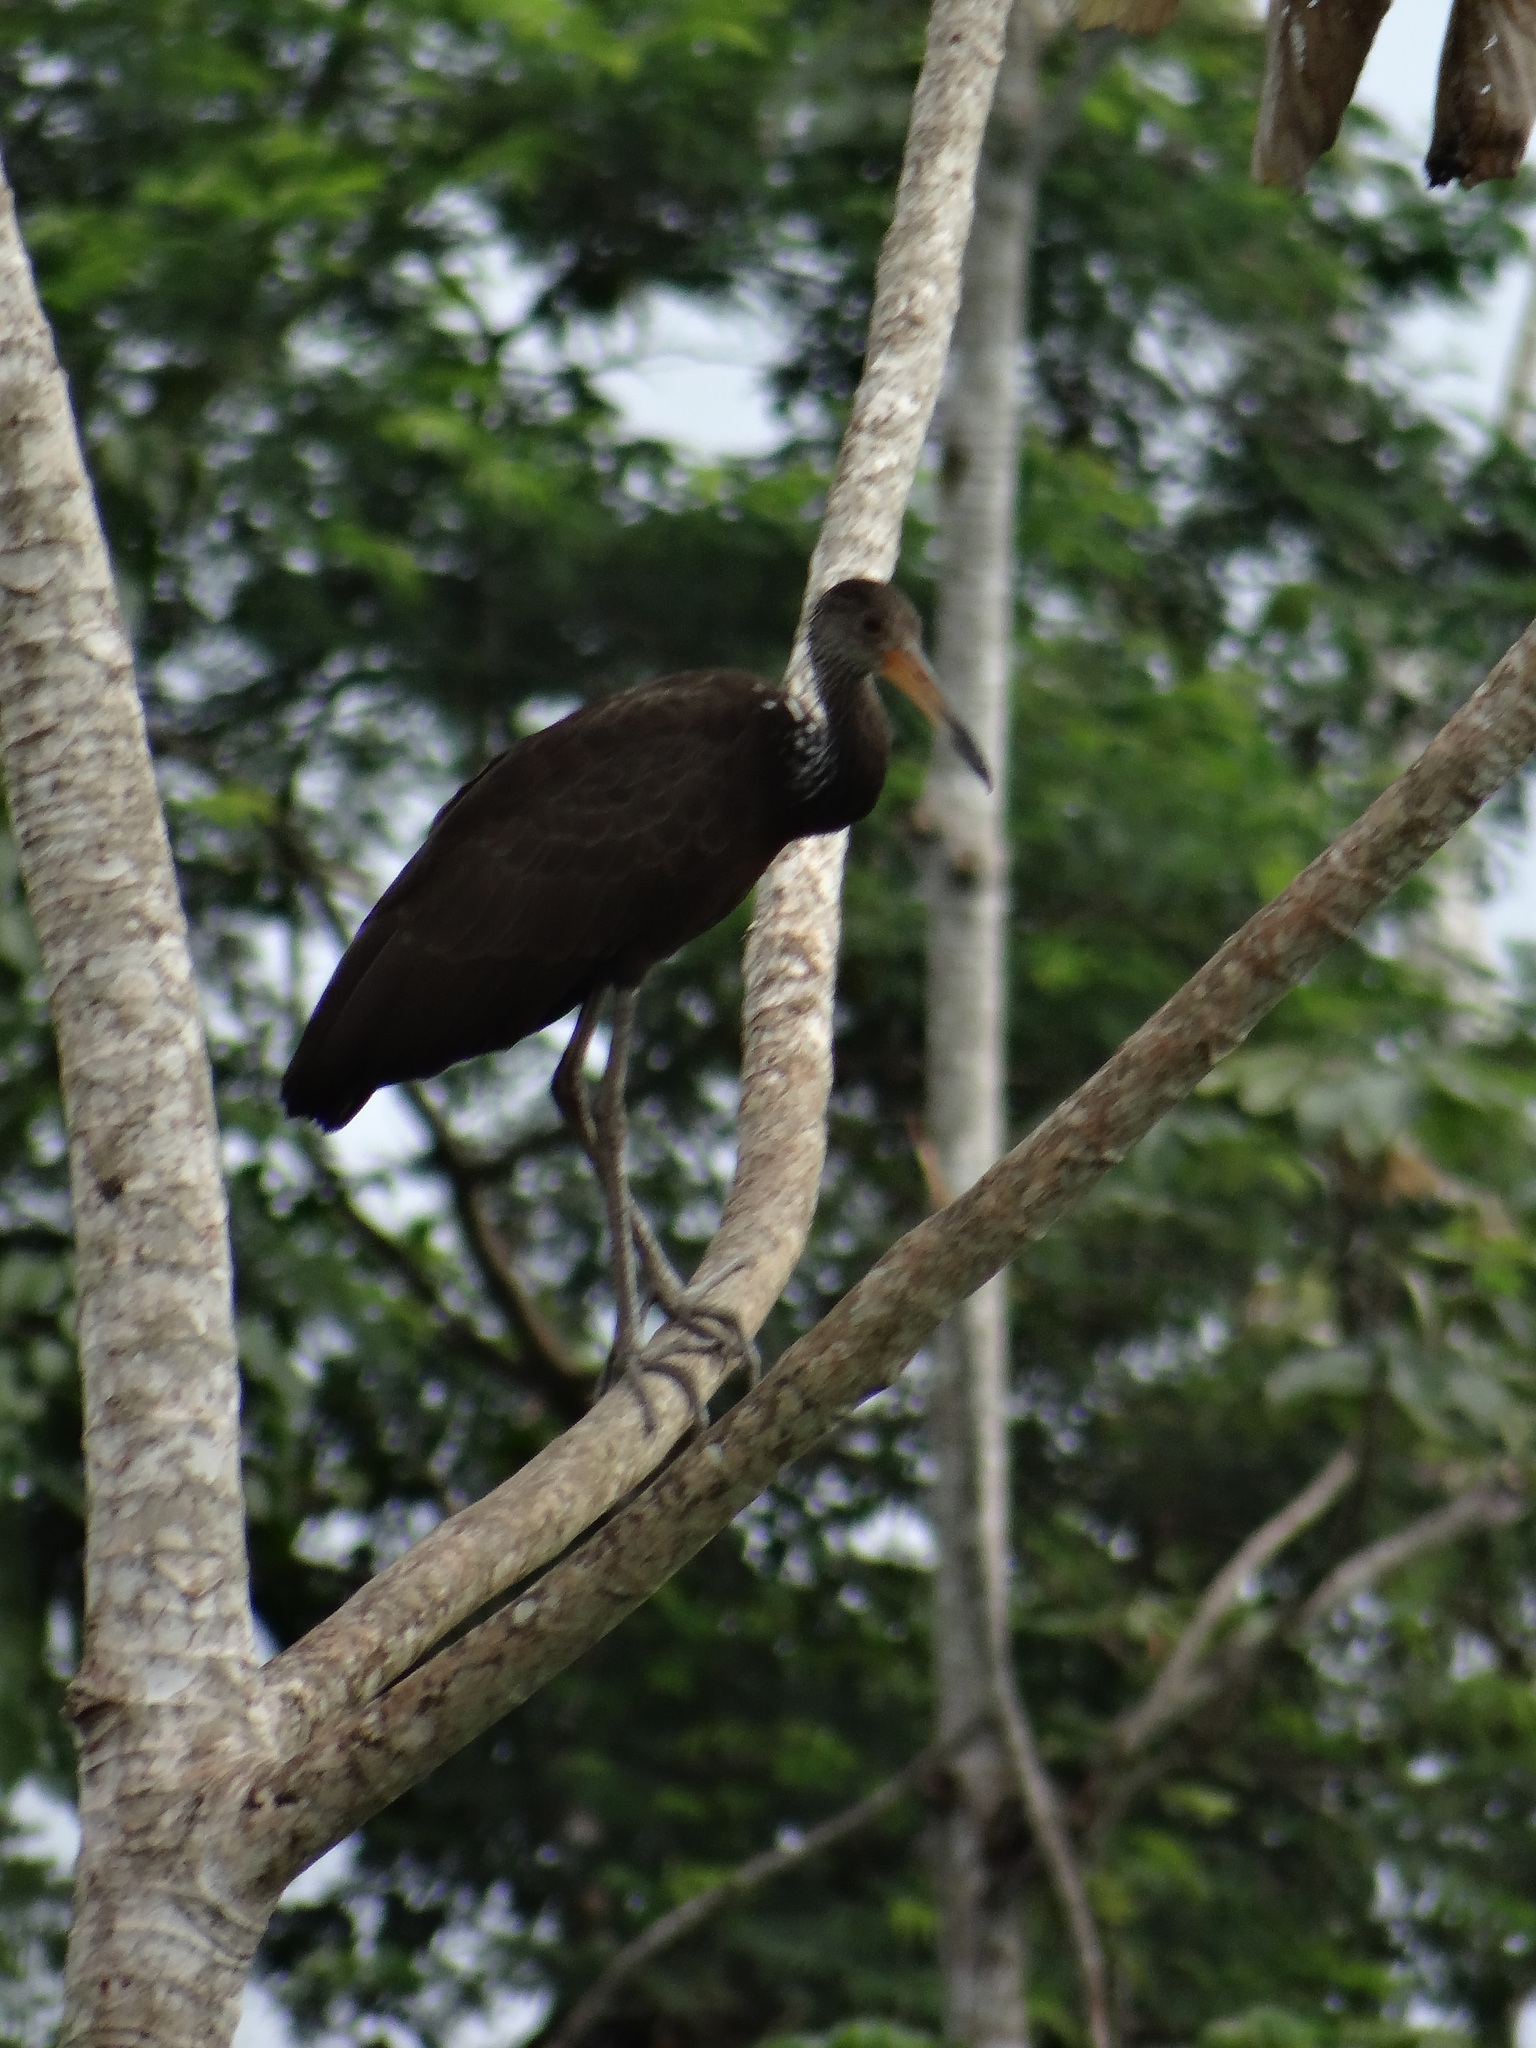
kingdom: Animalia
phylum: Chordata
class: Aves
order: Gruiformes
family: Aramidae
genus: Aramus
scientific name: Aramus guarauna
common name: Limpkin
